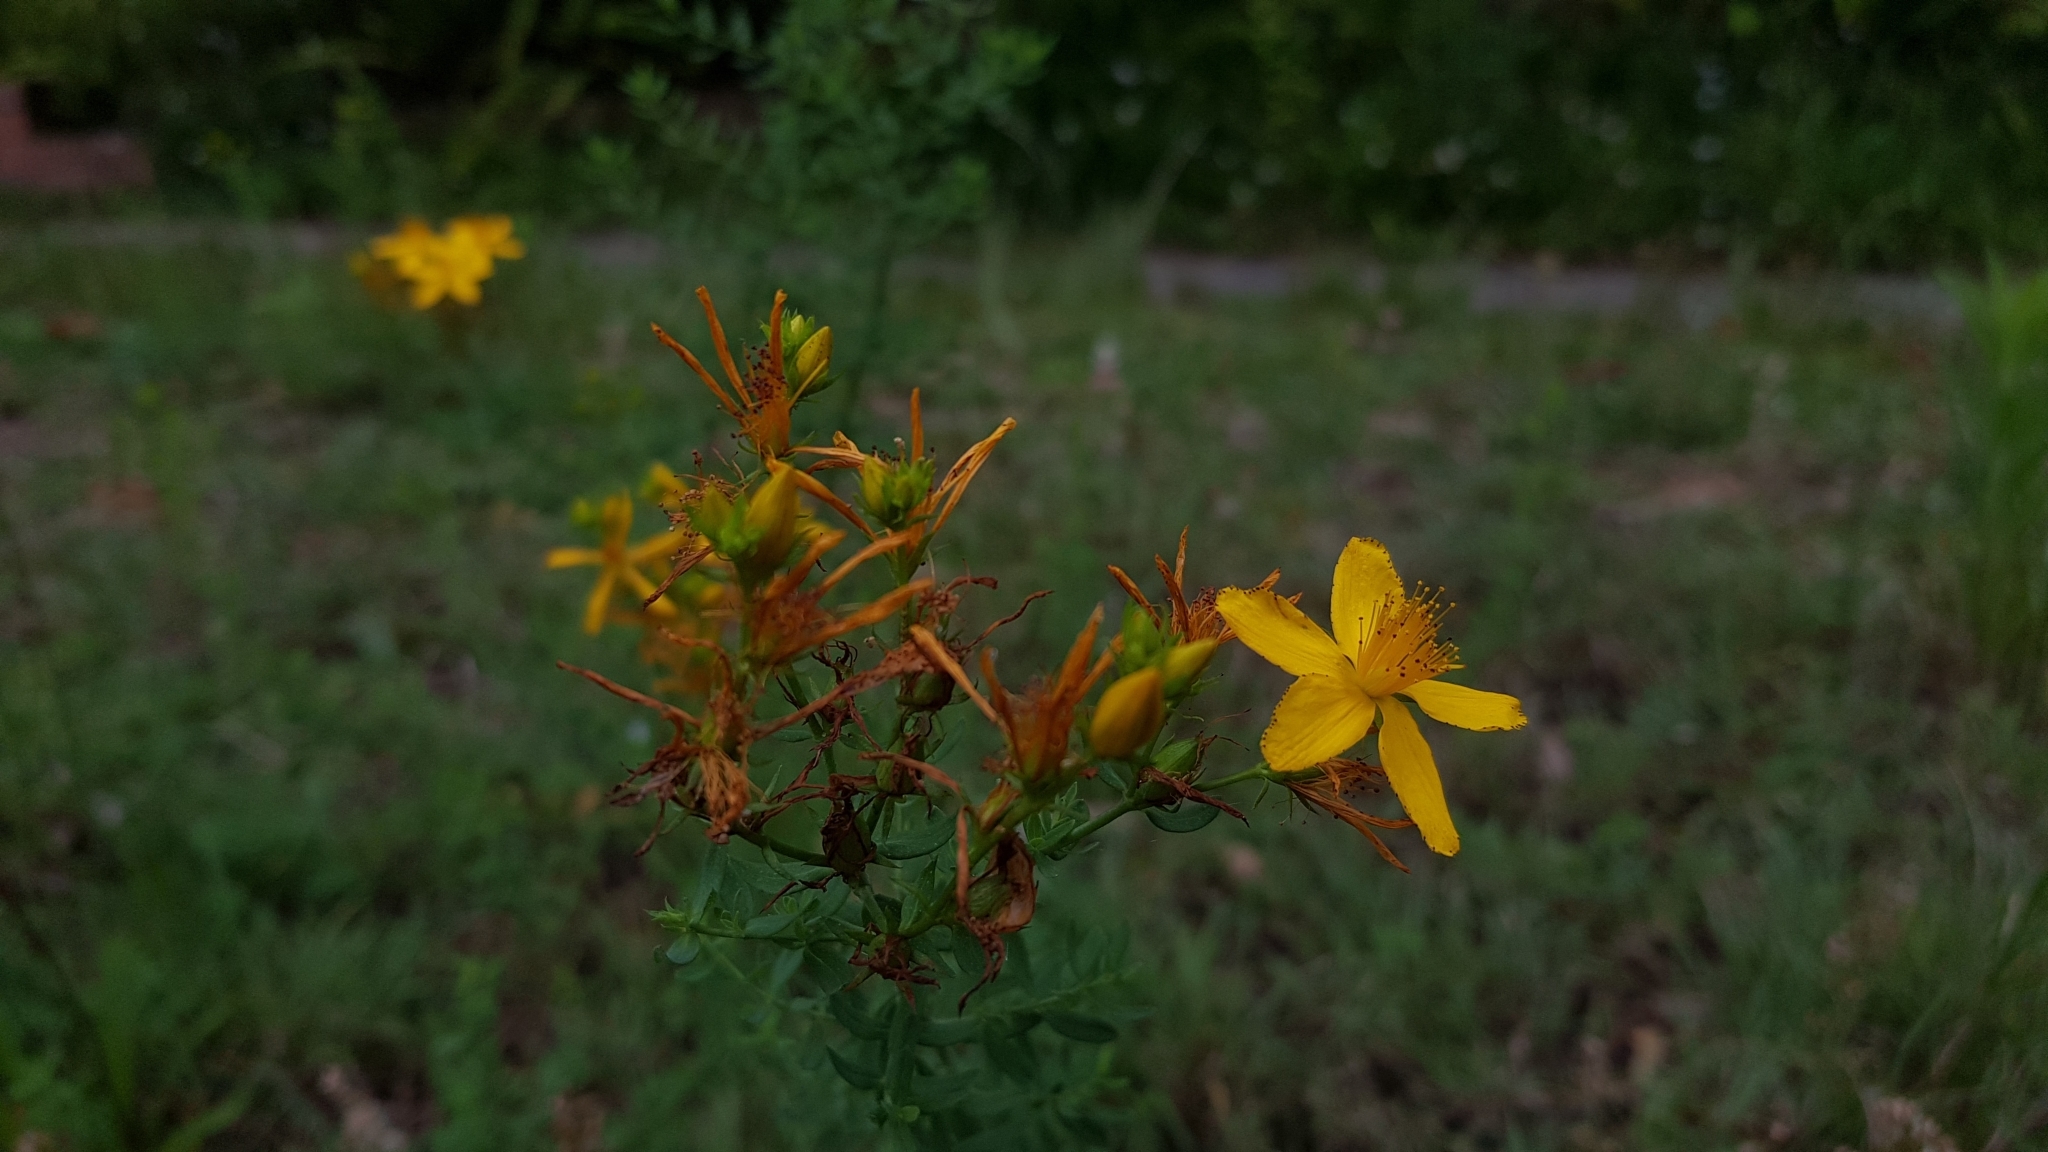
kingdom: Plantae
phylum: Tracheophyta
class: Magnoliopsida
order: Malpighiales
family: Hypericaceae
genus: Hypericum
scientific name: Hypericum perforatum
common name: Common st. johnswort
